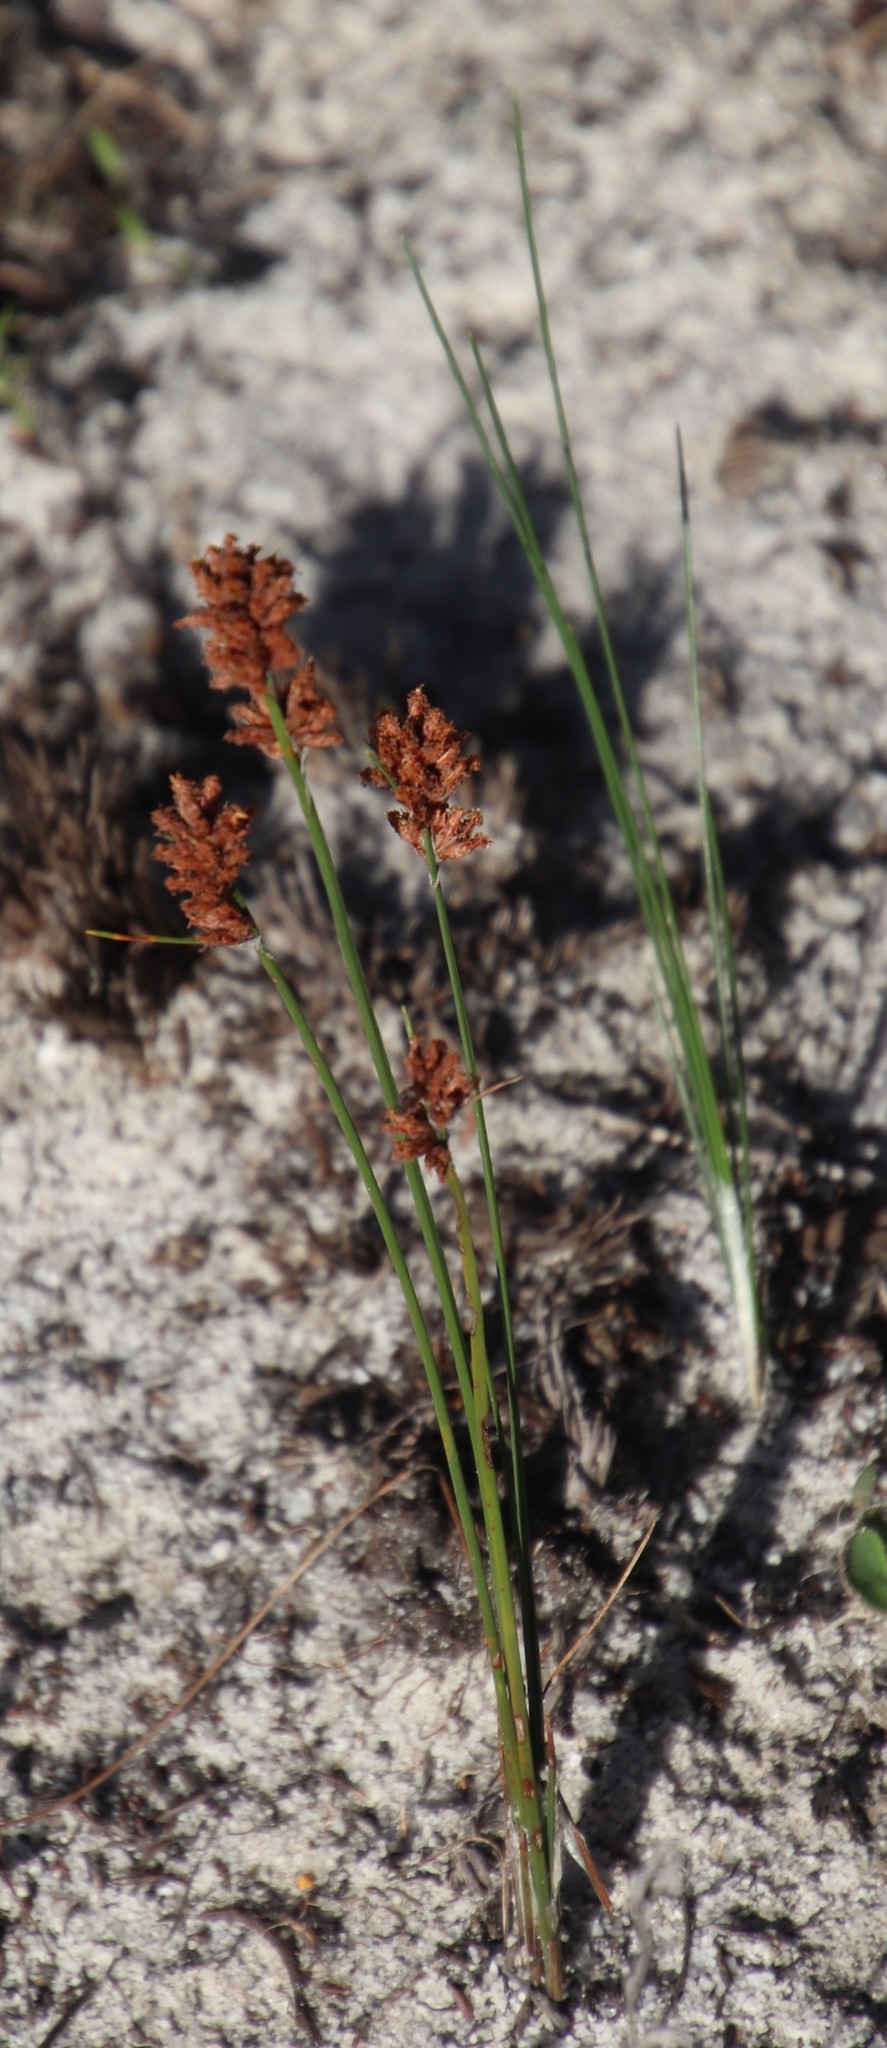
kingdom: Plantae
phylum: Tracheophyta
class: Liliopsida
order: Poales
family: Cyperaceae
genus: Ficinia
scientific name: Ficinia bulbosa
